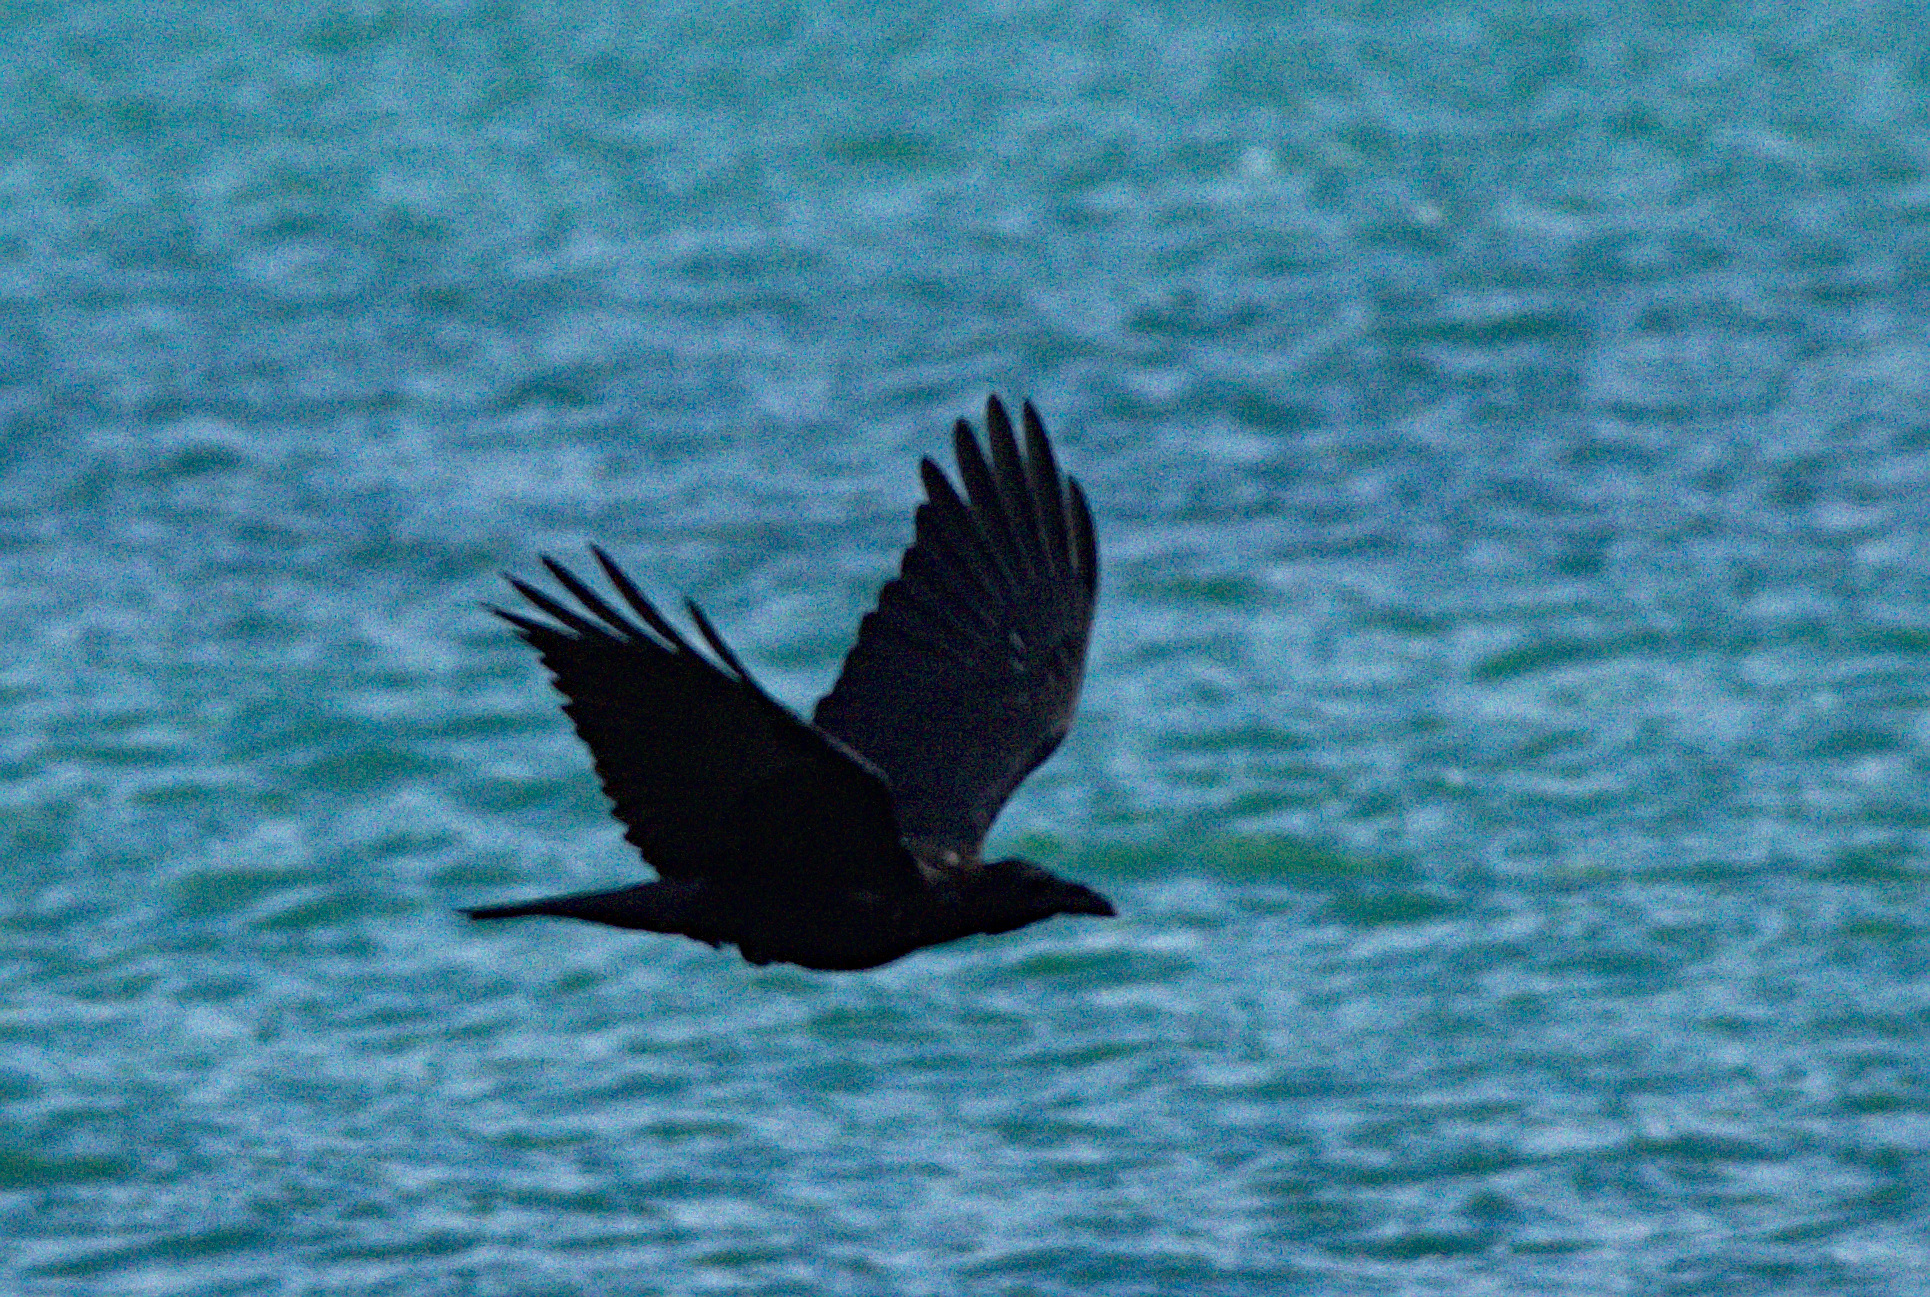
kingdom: Animalia
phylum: Chordata
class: Aves
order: Passeriformes
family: Corvidae
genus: Corvus
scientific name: Corvus corax
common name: Common raven
